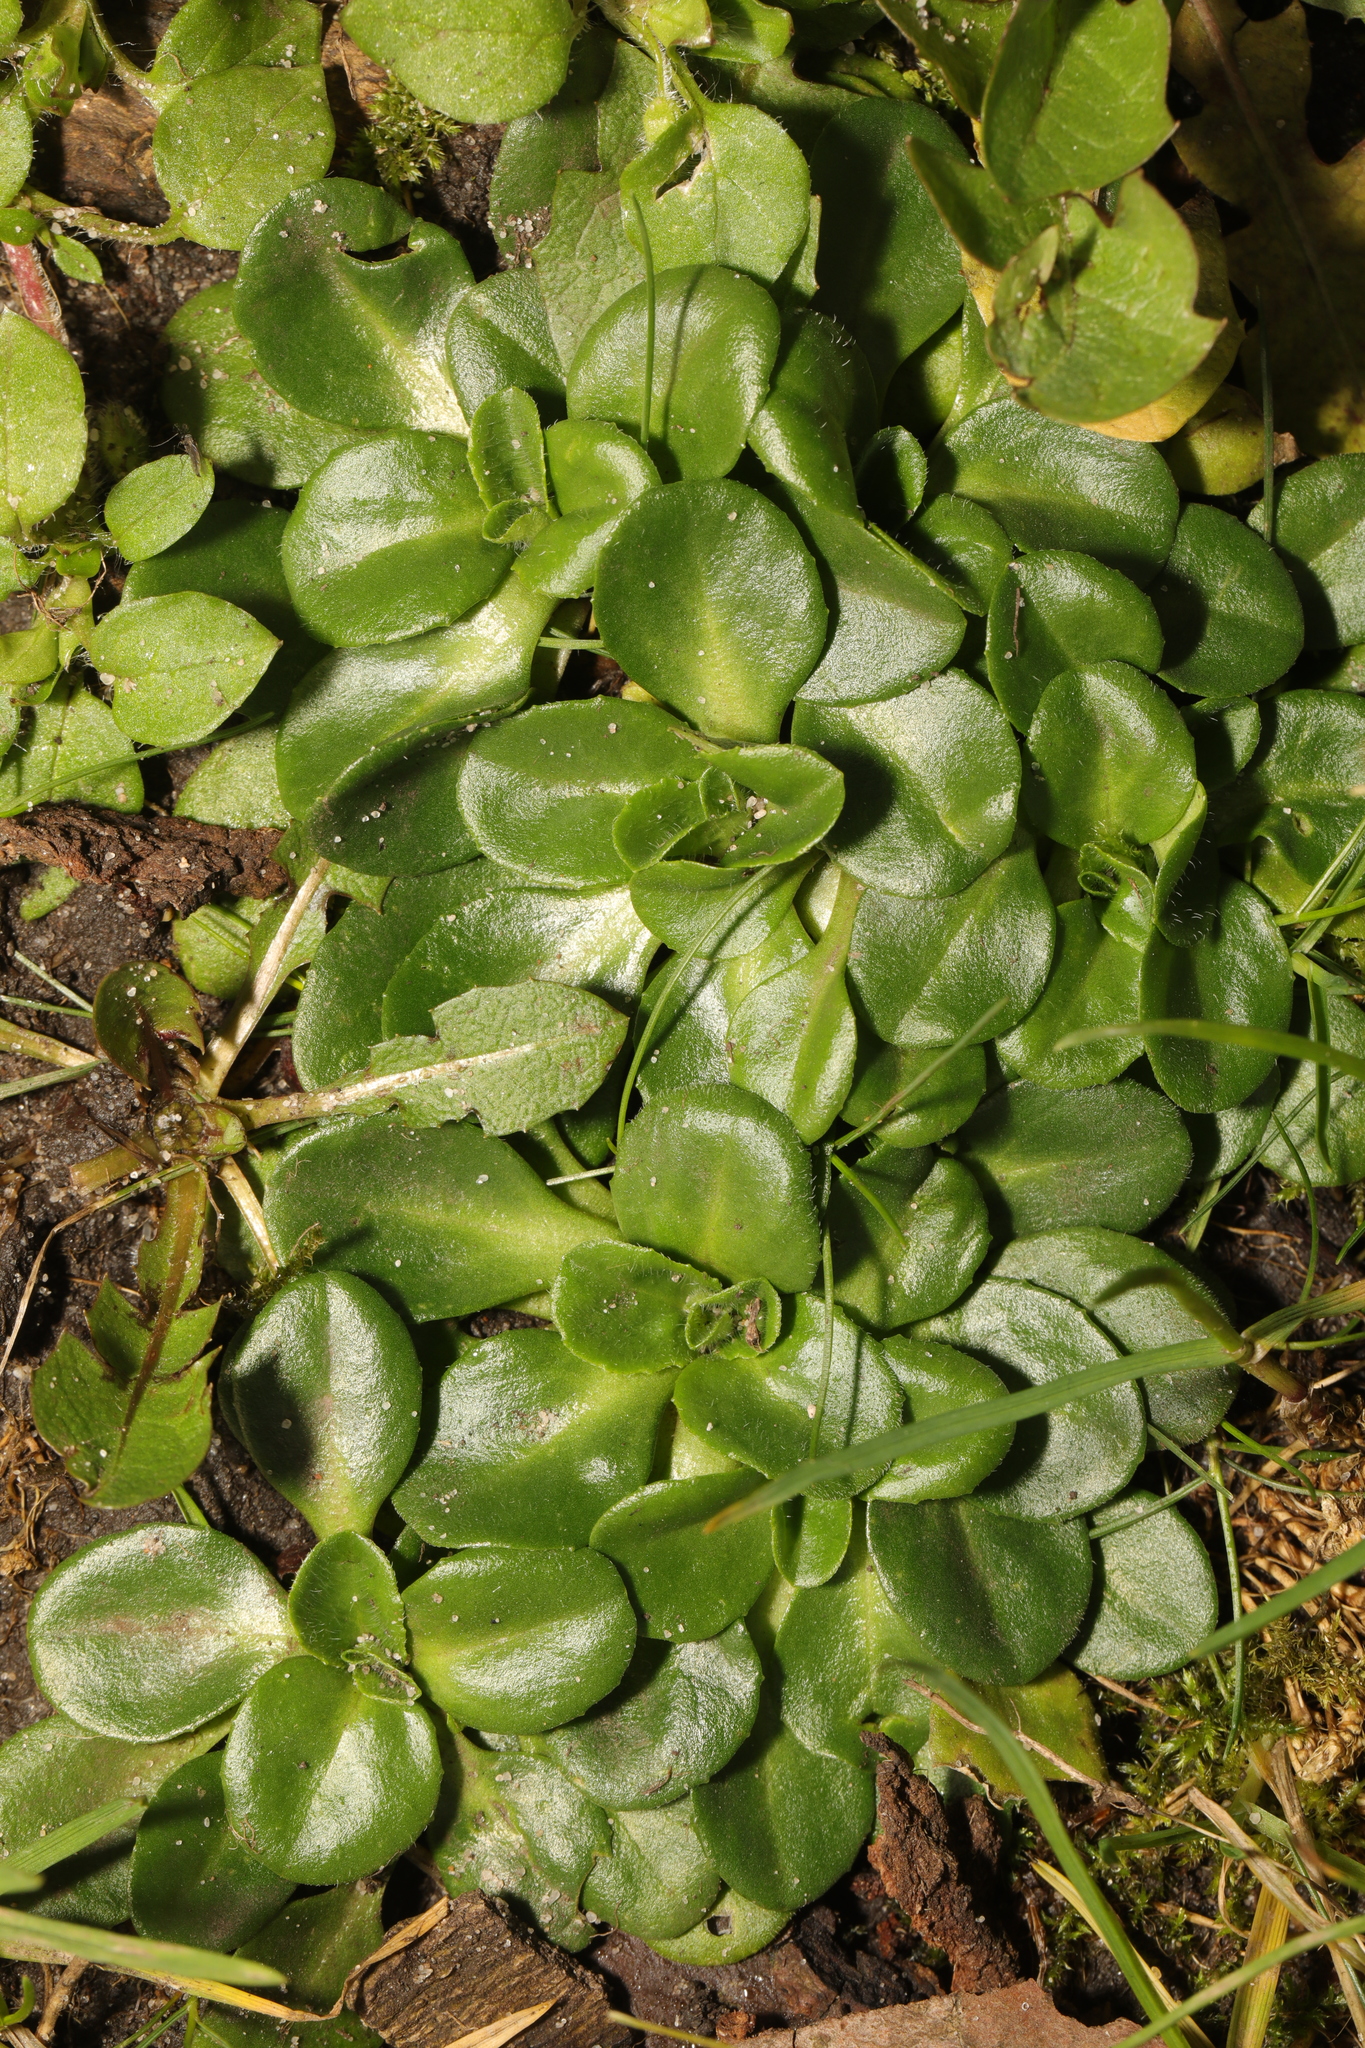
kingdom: Plantae
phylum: Tracheophyta
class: Magnoliopsida
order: Asterales
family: Asteraceae
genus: Bellis
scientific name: Bellis perennis
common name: Lawndaisy
